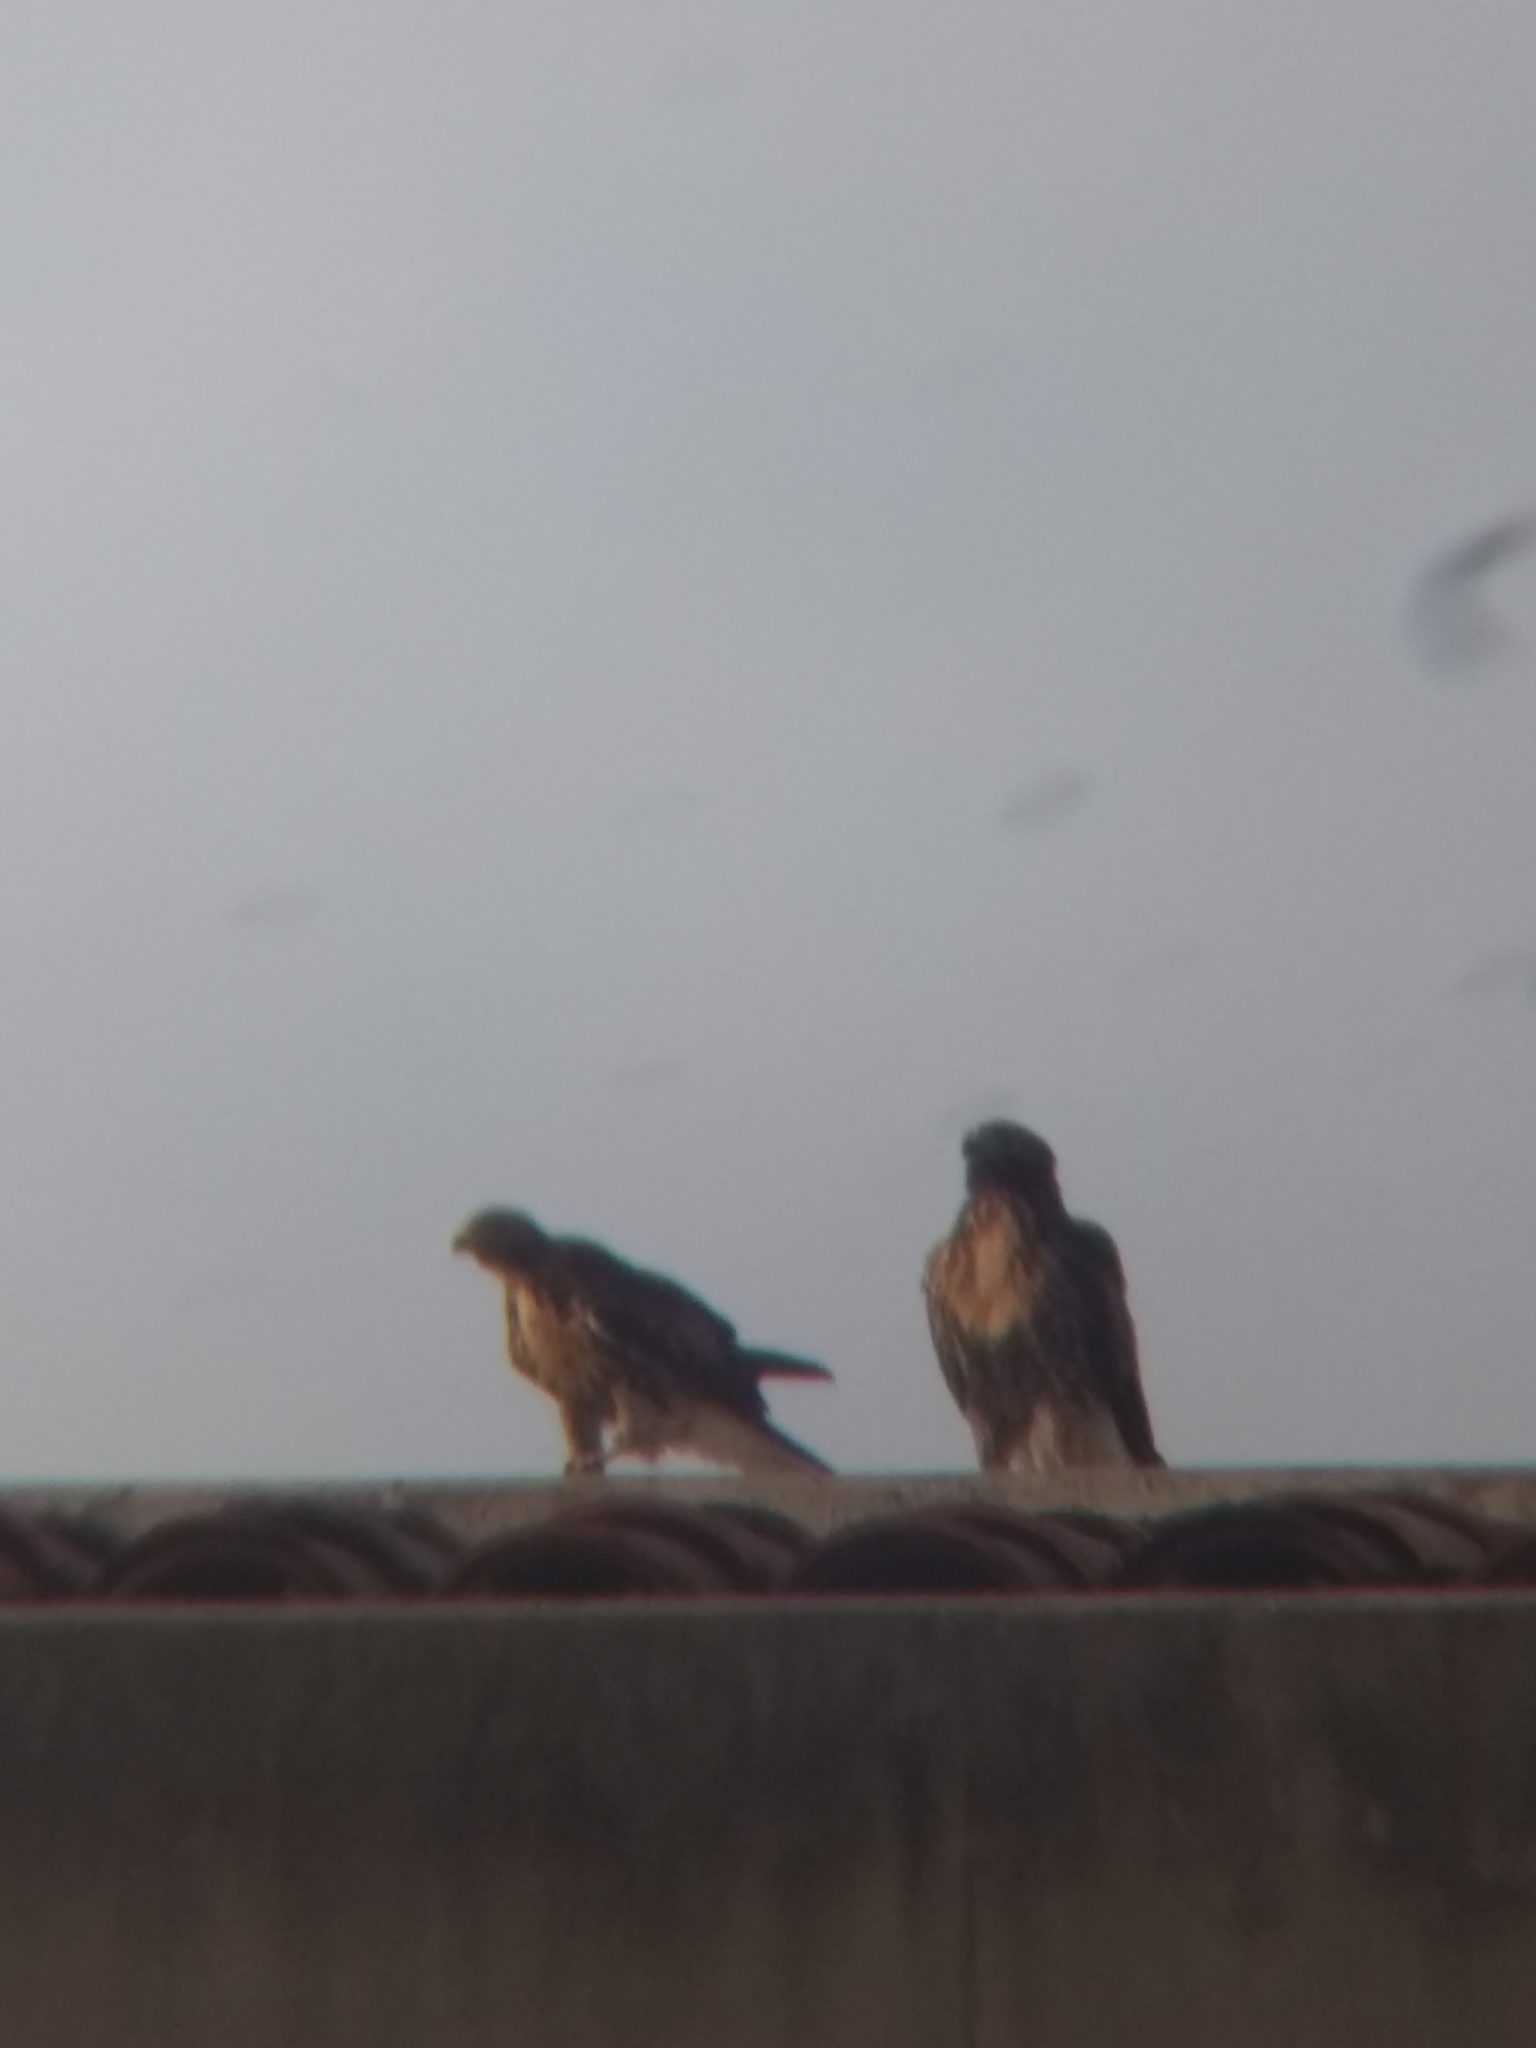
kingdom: Animalia
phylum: Chordata
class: Aves
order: Accipitriformes
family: Accipitridae
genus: Buteo
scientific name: Buteo jamaicensis
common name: Red-tailed hawk
